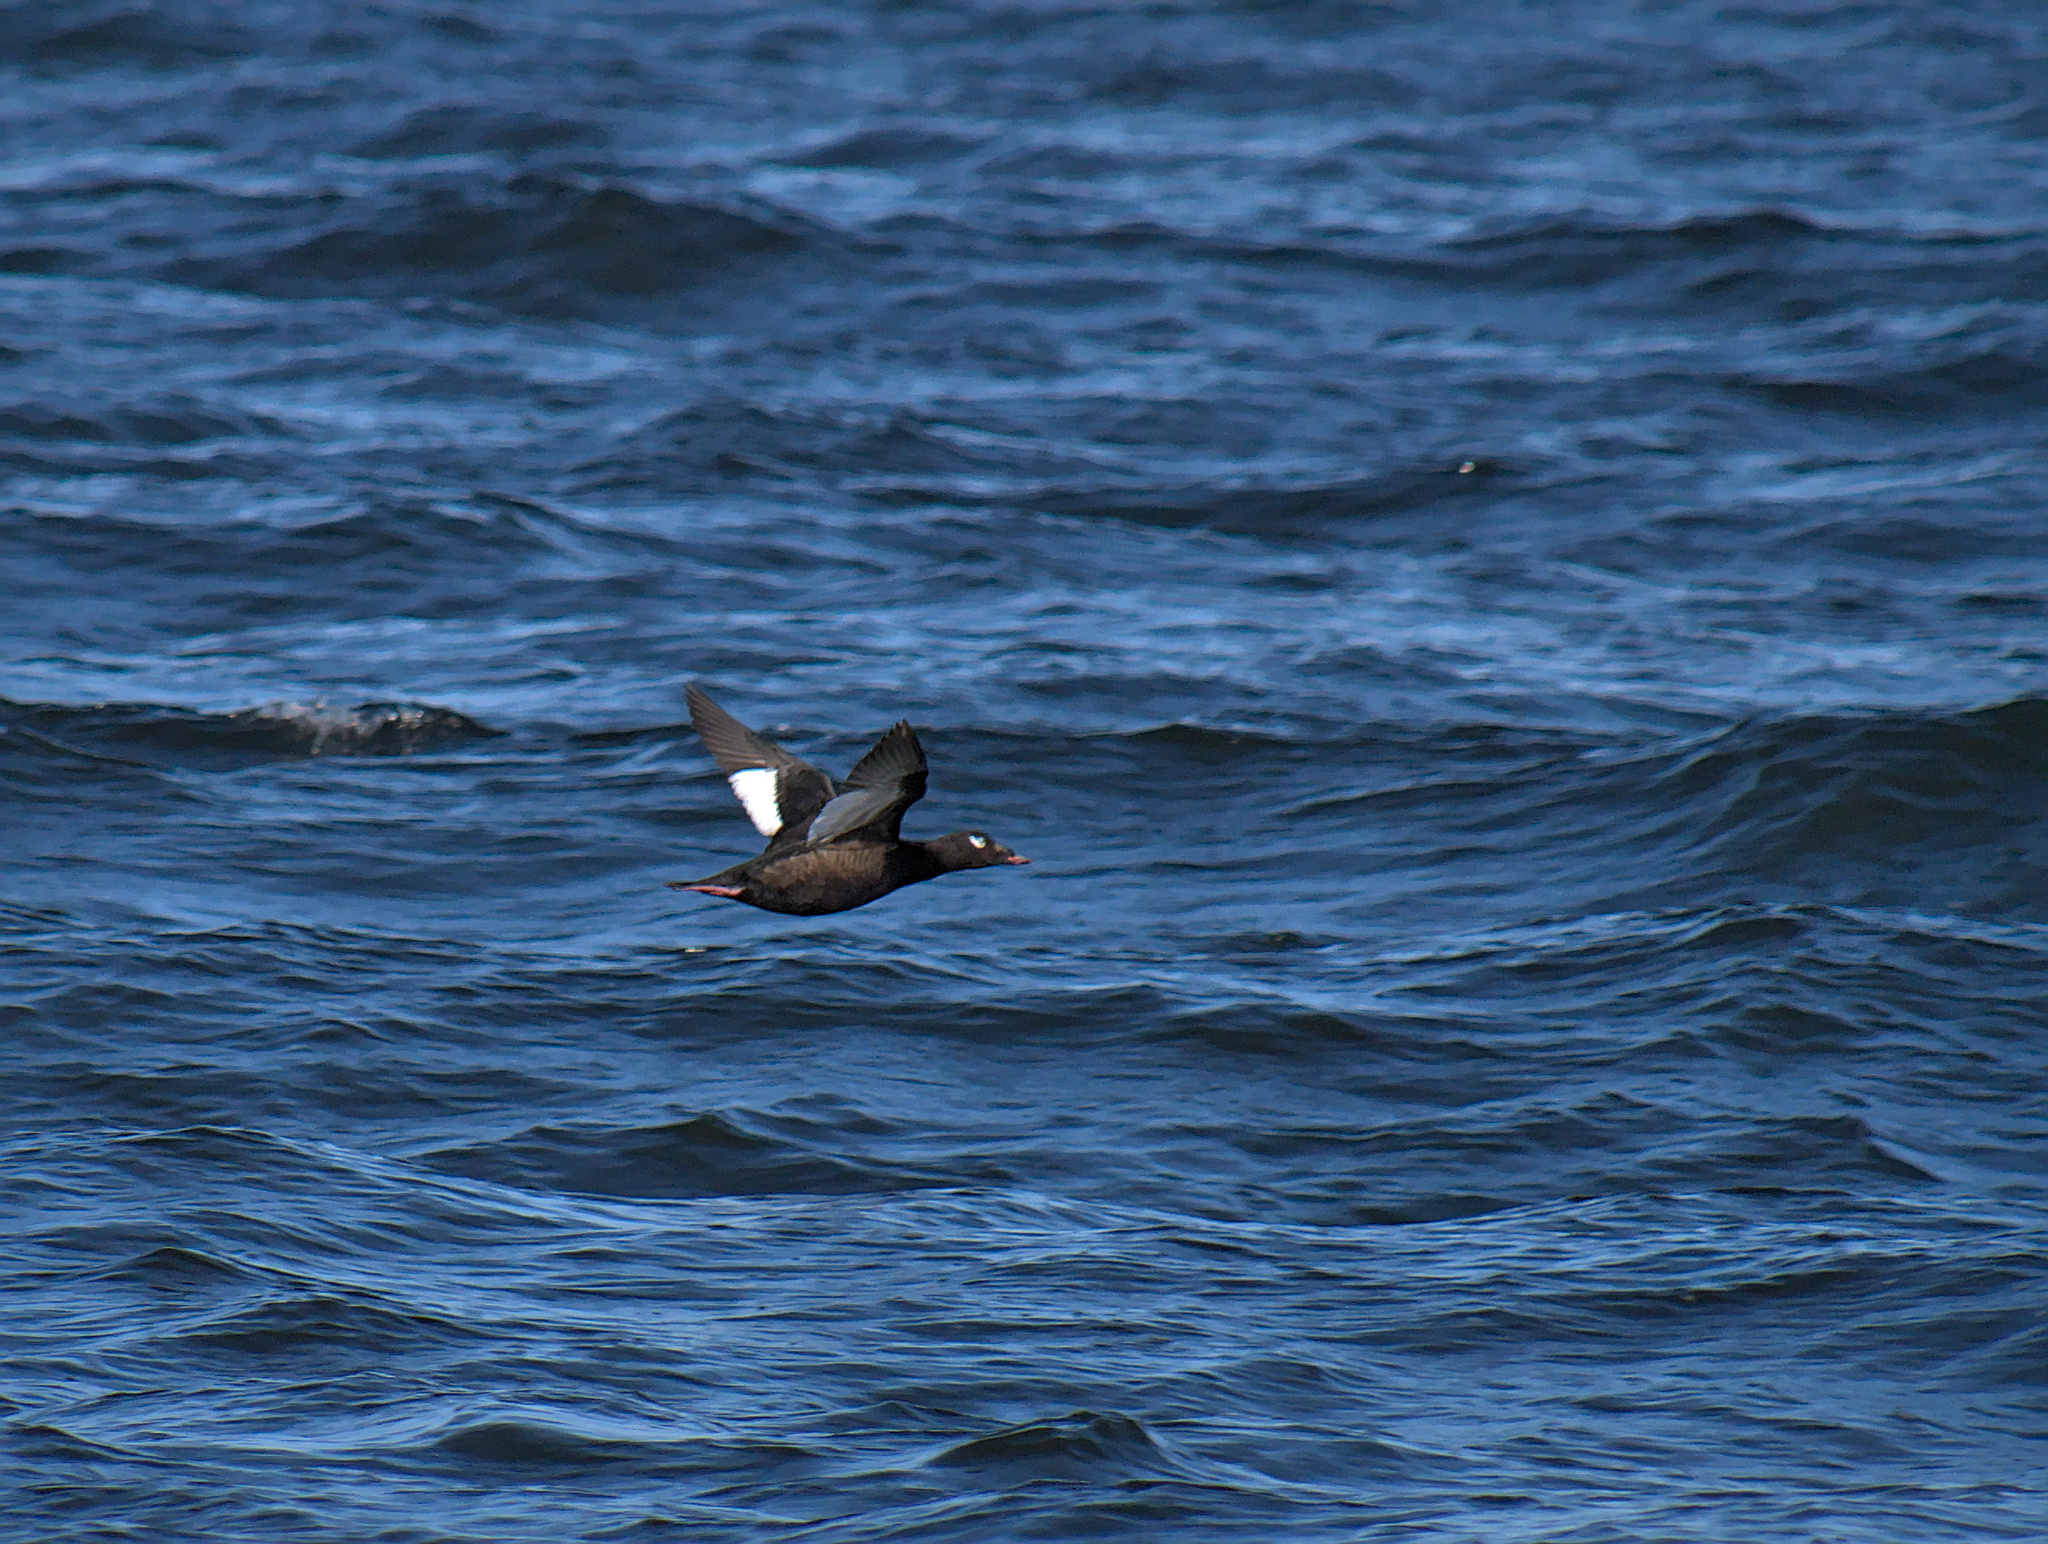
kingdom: Animalia
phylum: Chordata
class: Aves
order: Anseriformes
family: Anatidae
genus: Melanitta
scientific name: Melanitta deglandi
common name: White-winged scoter
